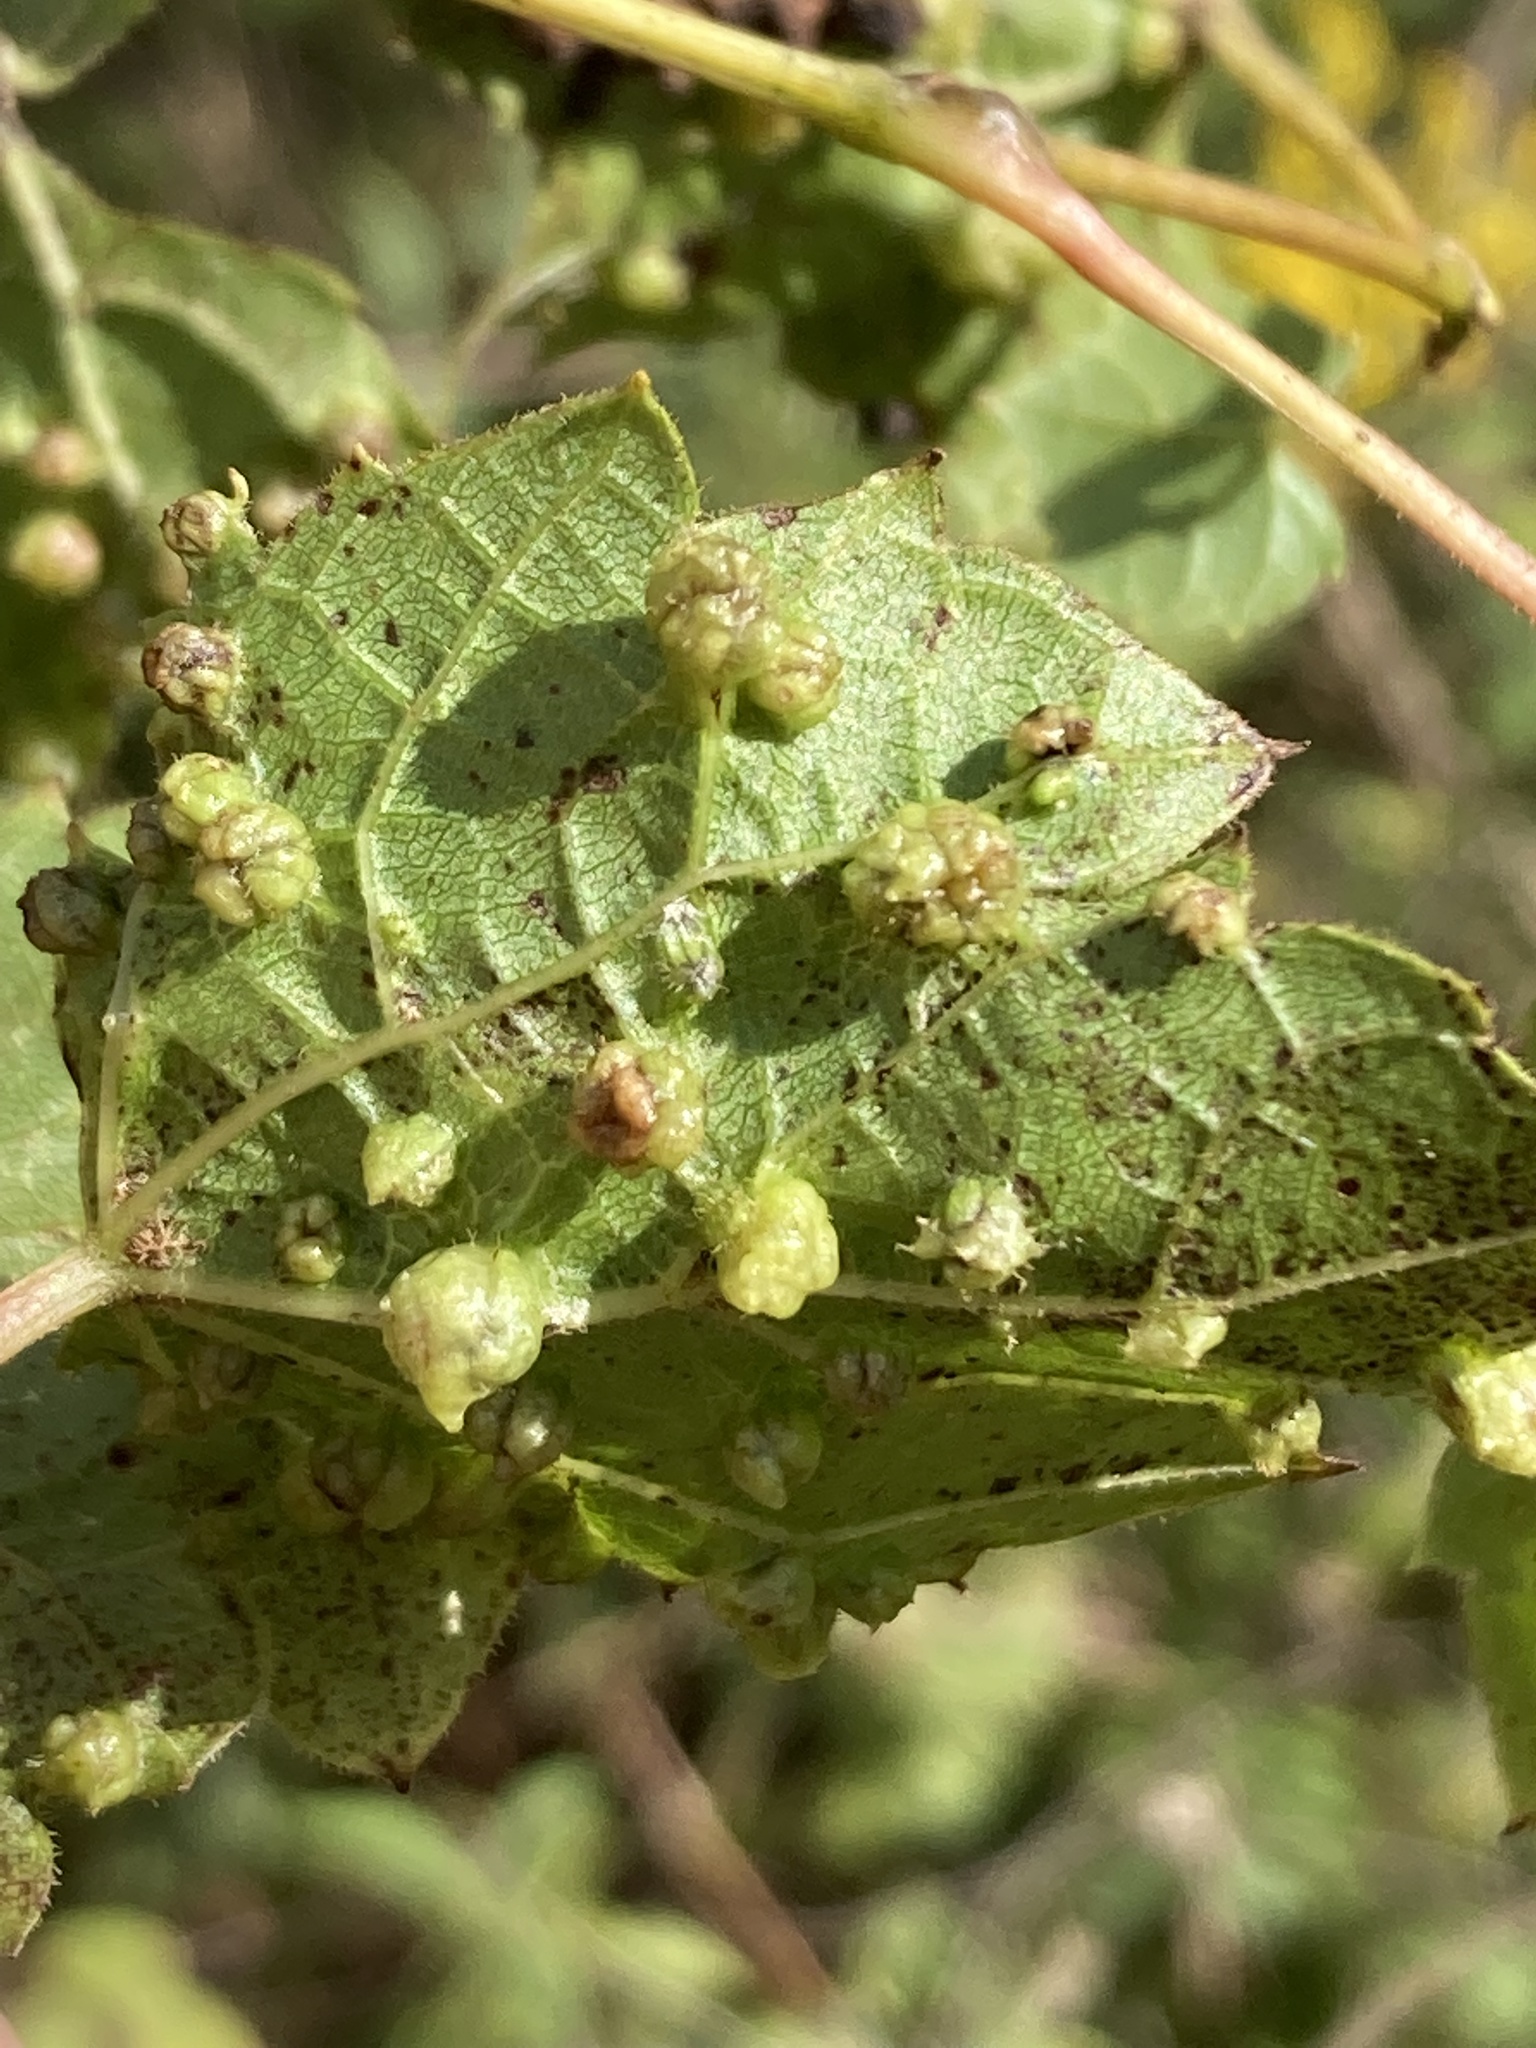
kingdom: Animalia
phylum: Arthropoda
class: Insecta
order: Hemiptera
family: Phylloxeridae
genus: Daktulosphaira
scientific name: Daktulosphaira vitifoliae
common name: Grape phylloxera
